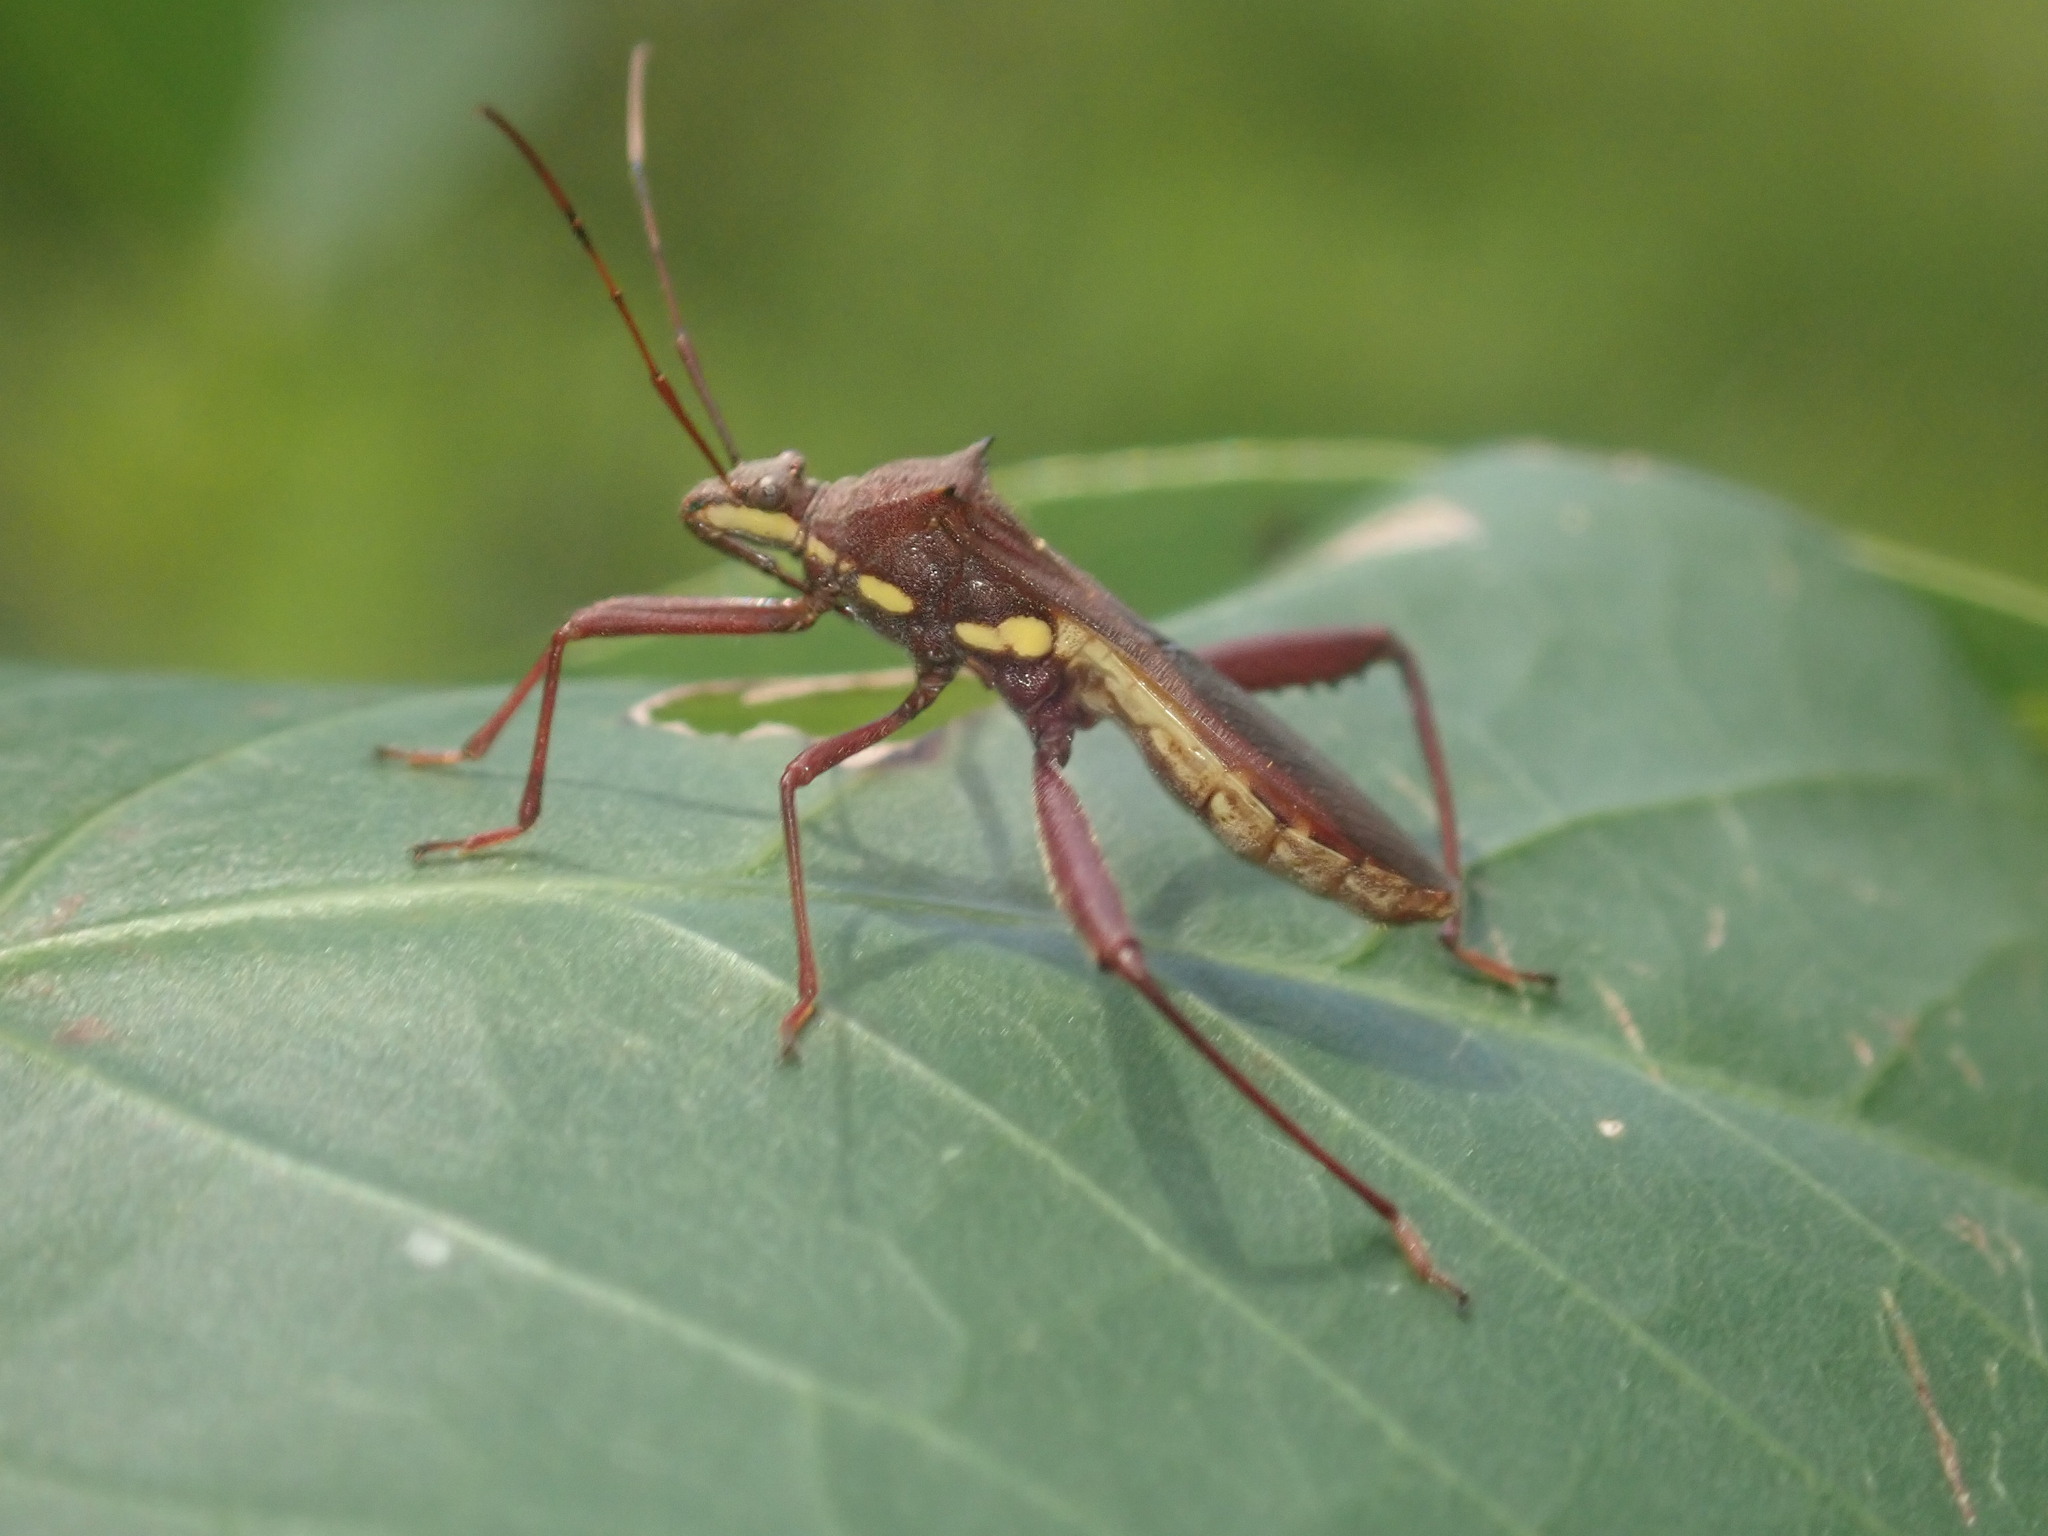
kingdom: Animalia
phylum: Arthropoda
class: Insecta
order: Hemiptera
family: Alydidae
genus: Riptortus
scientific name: Riptortus serripes
